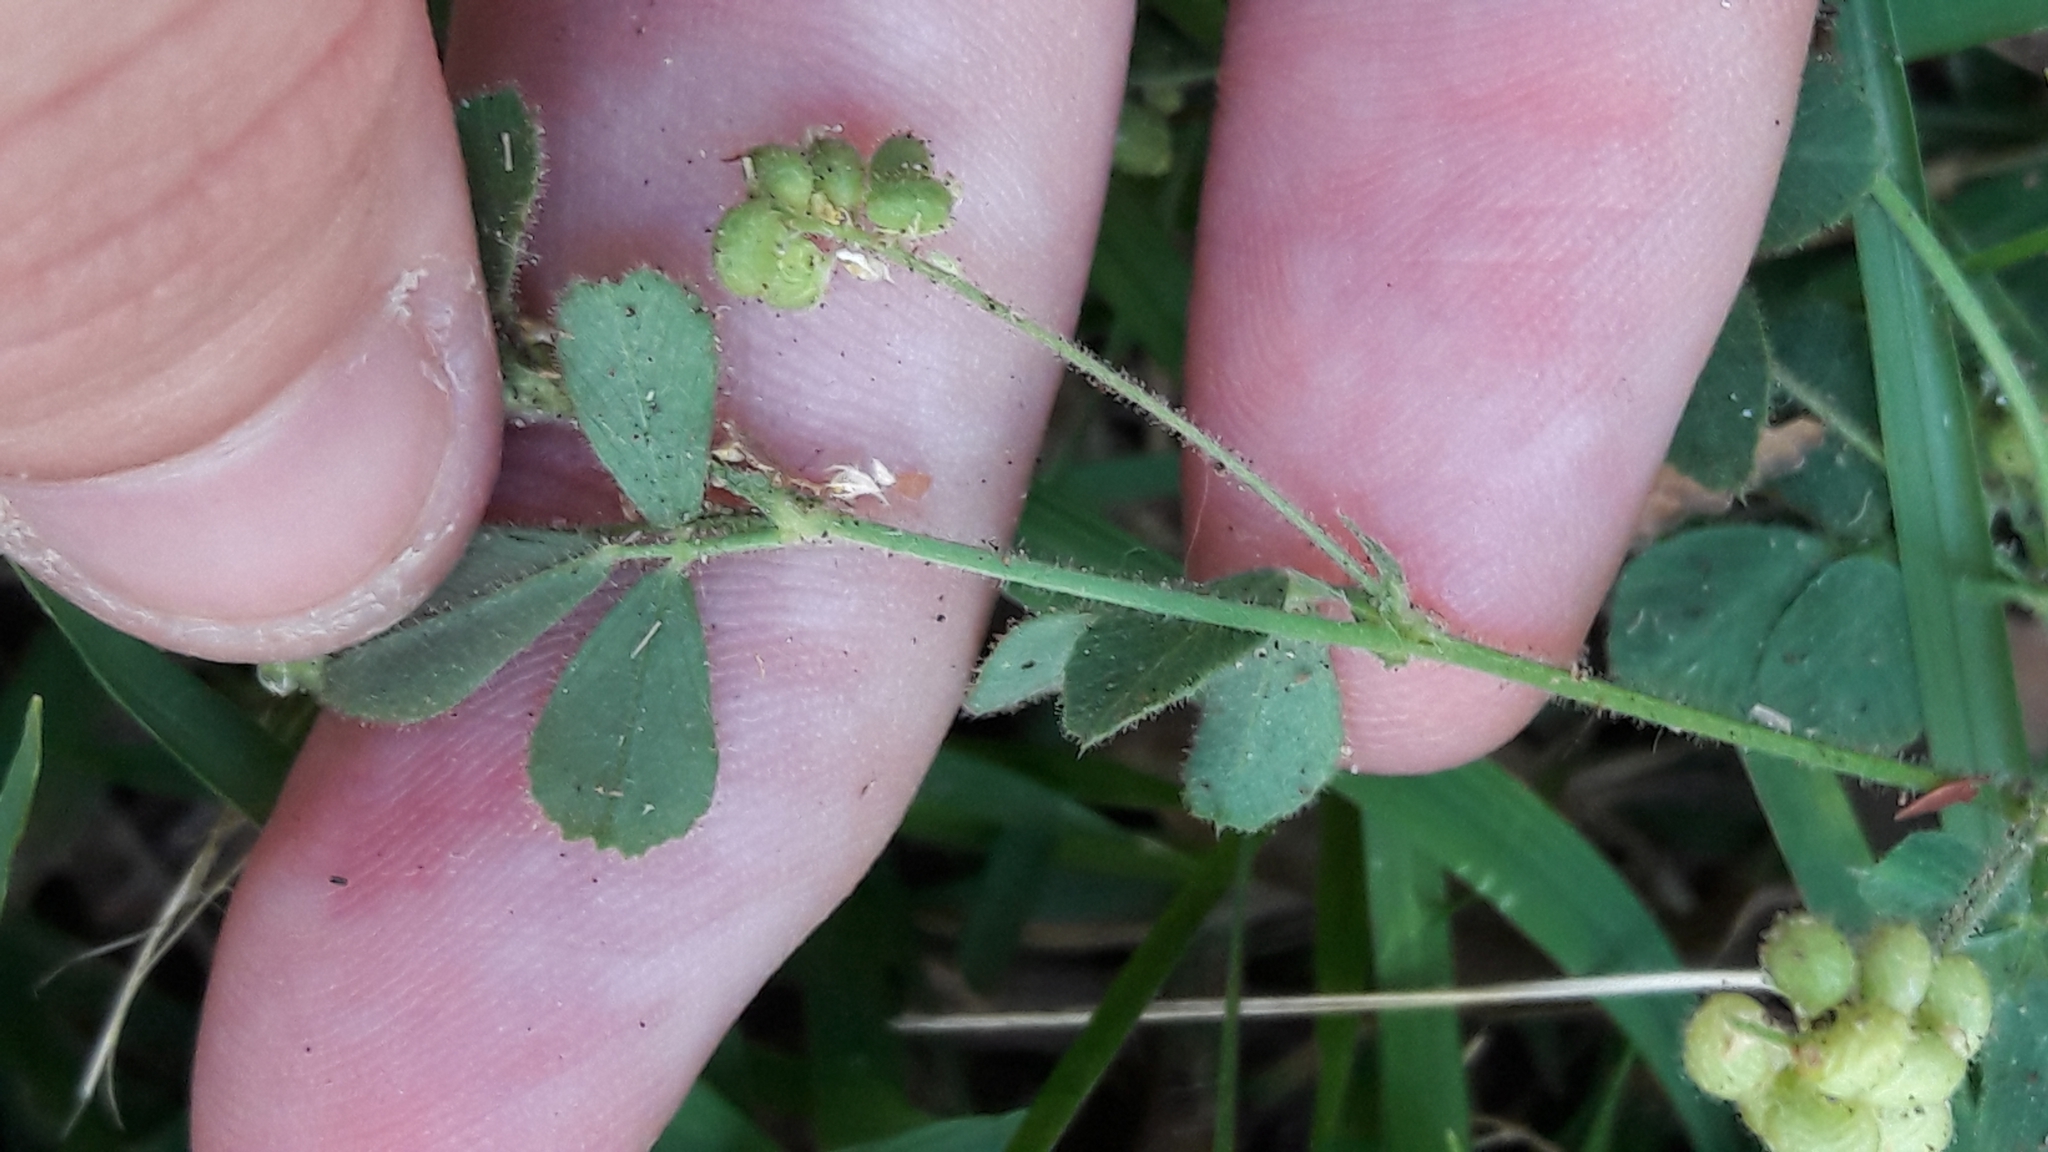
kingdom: Plantae
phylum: Tracheophyta
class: Magnoliopsida
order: Fabales
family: Fabaceae
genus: Medicago
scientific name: Medicago lupulina
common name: Black medick
